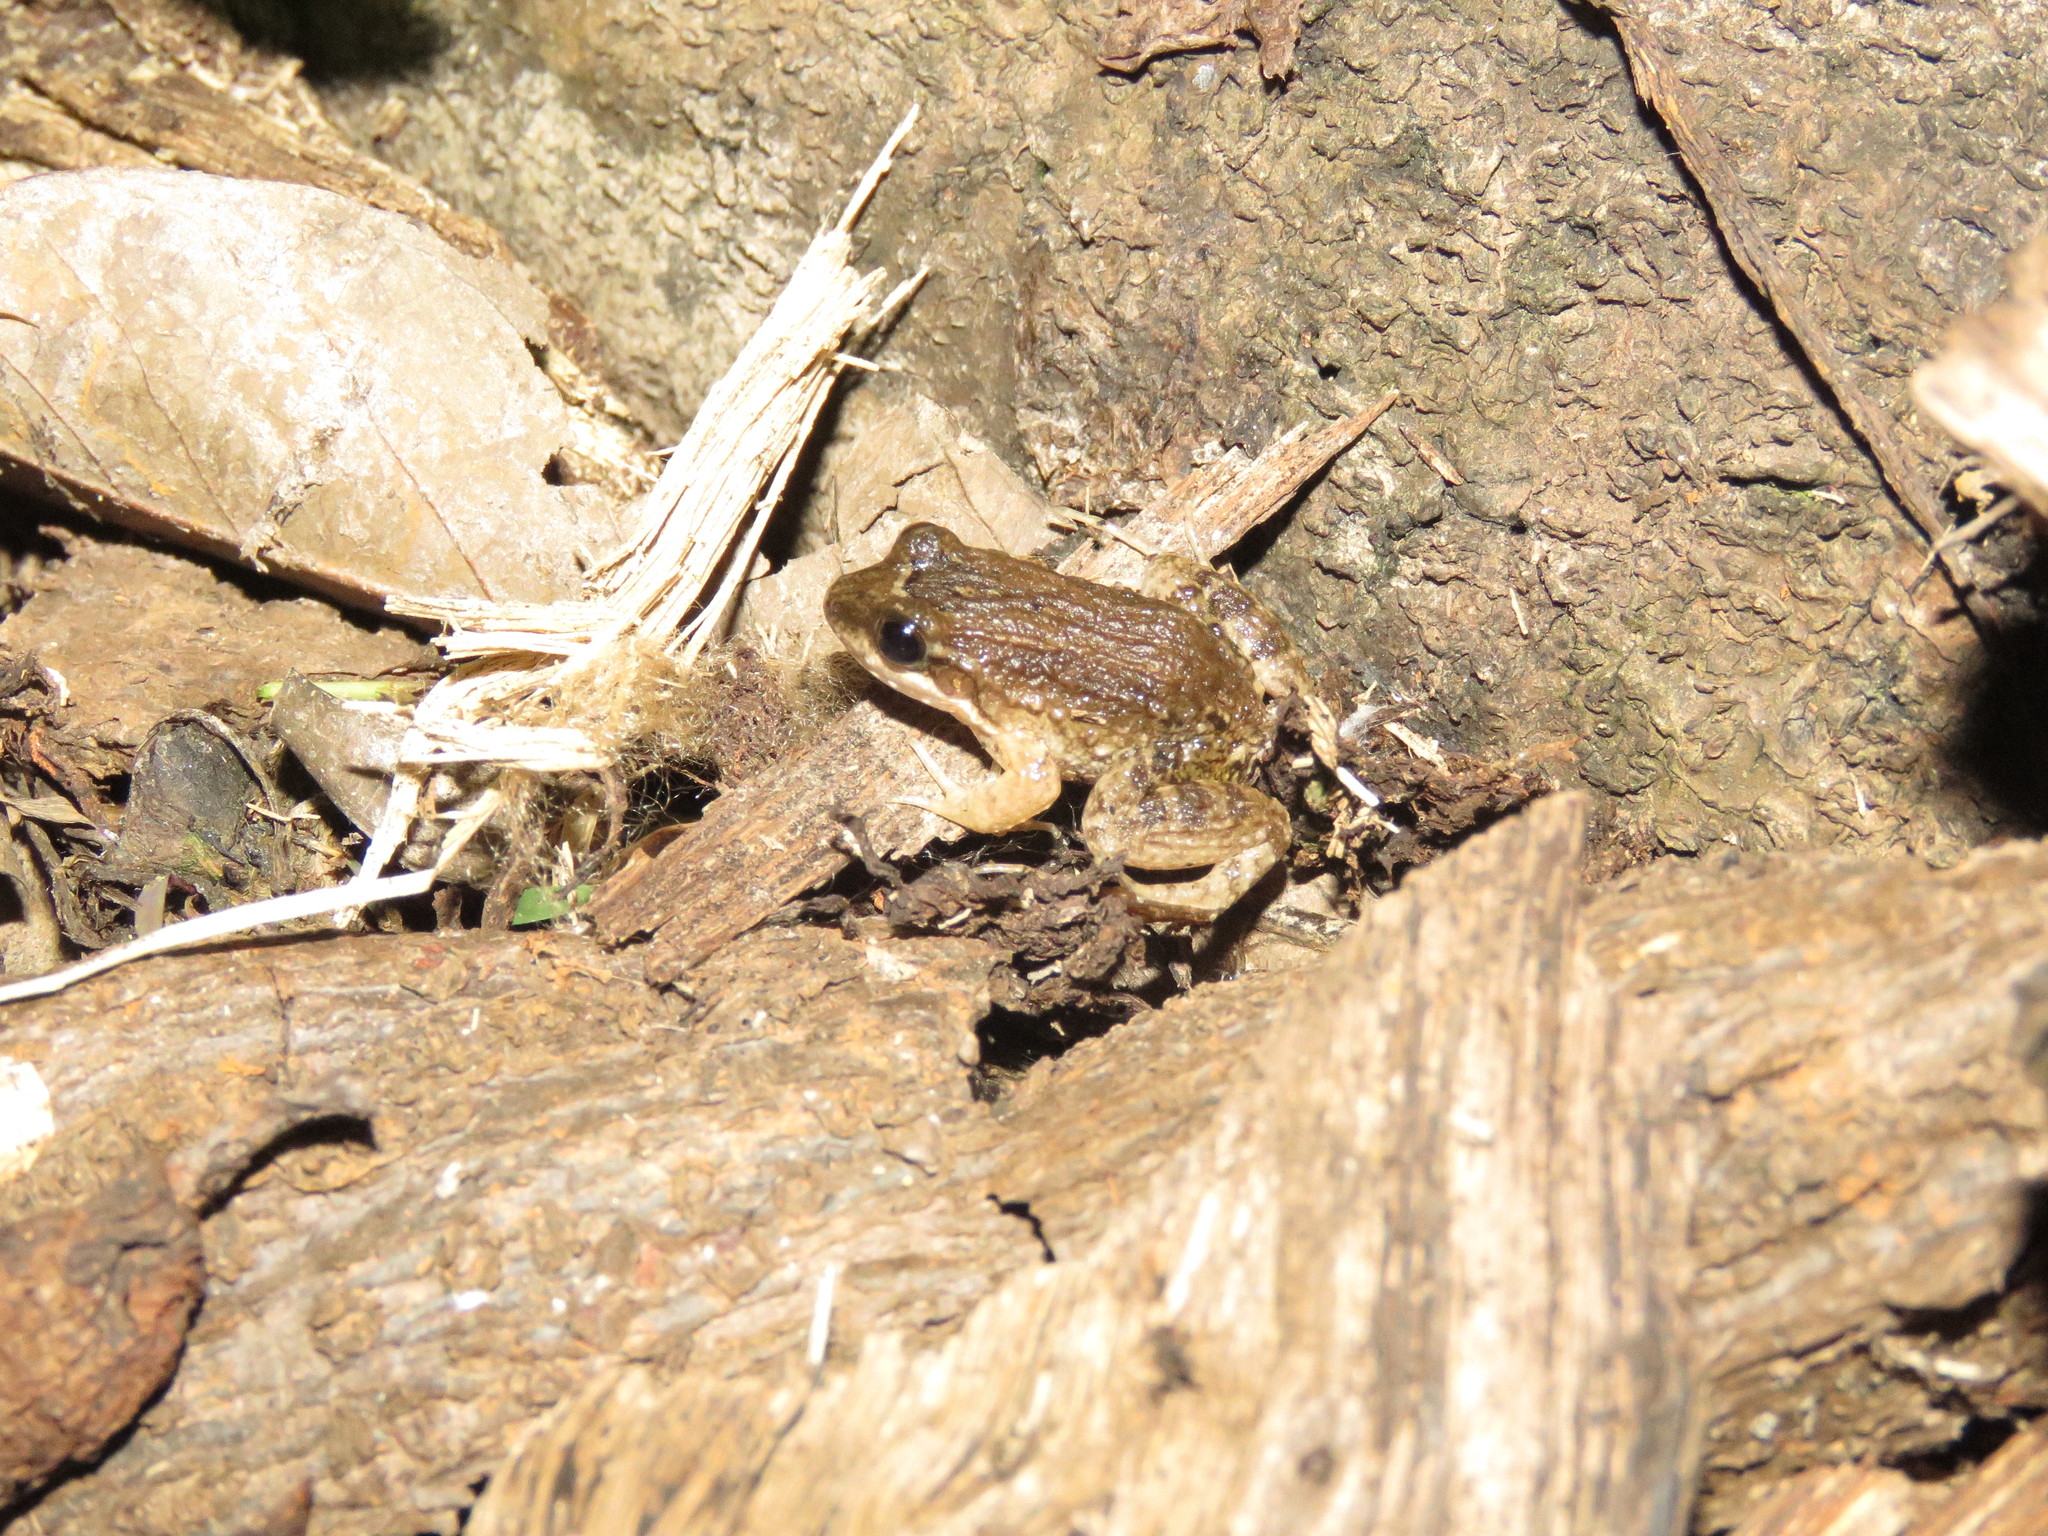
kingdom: Animalia
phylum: Chordata
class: Amphibia
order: Anura
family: Leptodactylidae
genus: Leptodactylus
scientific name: Leptodactylus petersii
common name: Peters' thin-toed frog
